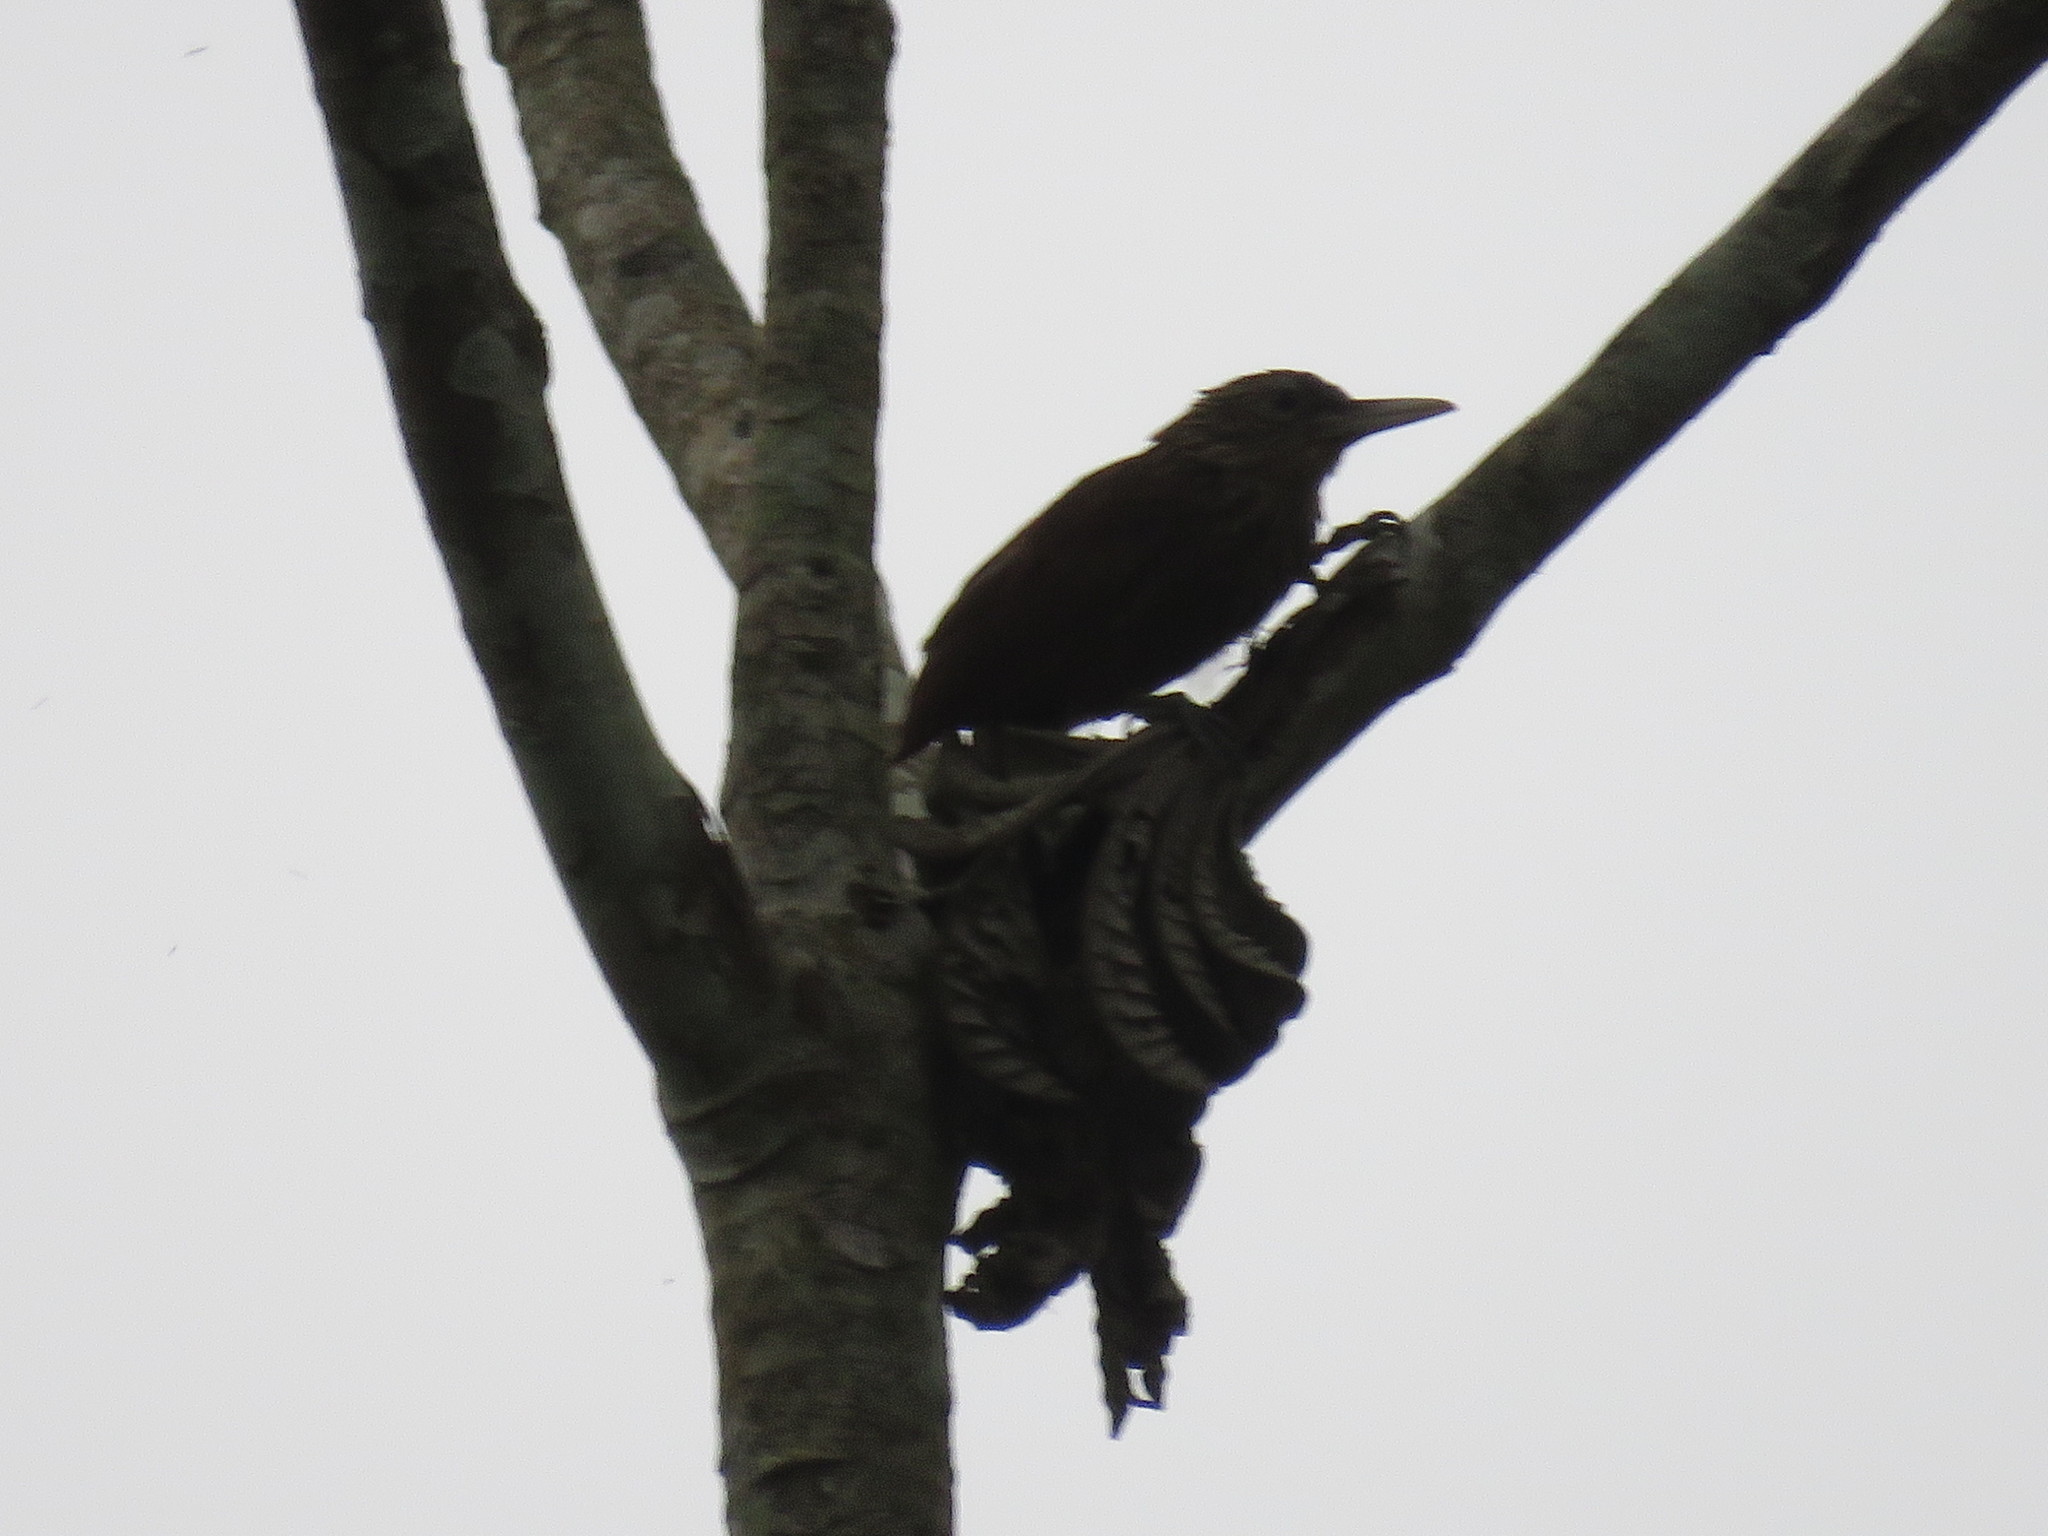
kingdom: Animalia
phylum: Chordata
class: Aves
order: Passeriformes
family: Furnariidae
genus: Xiphorhynchus
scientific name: Xiphorhynchus ocellatus
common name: Ocellated woodcreeper
